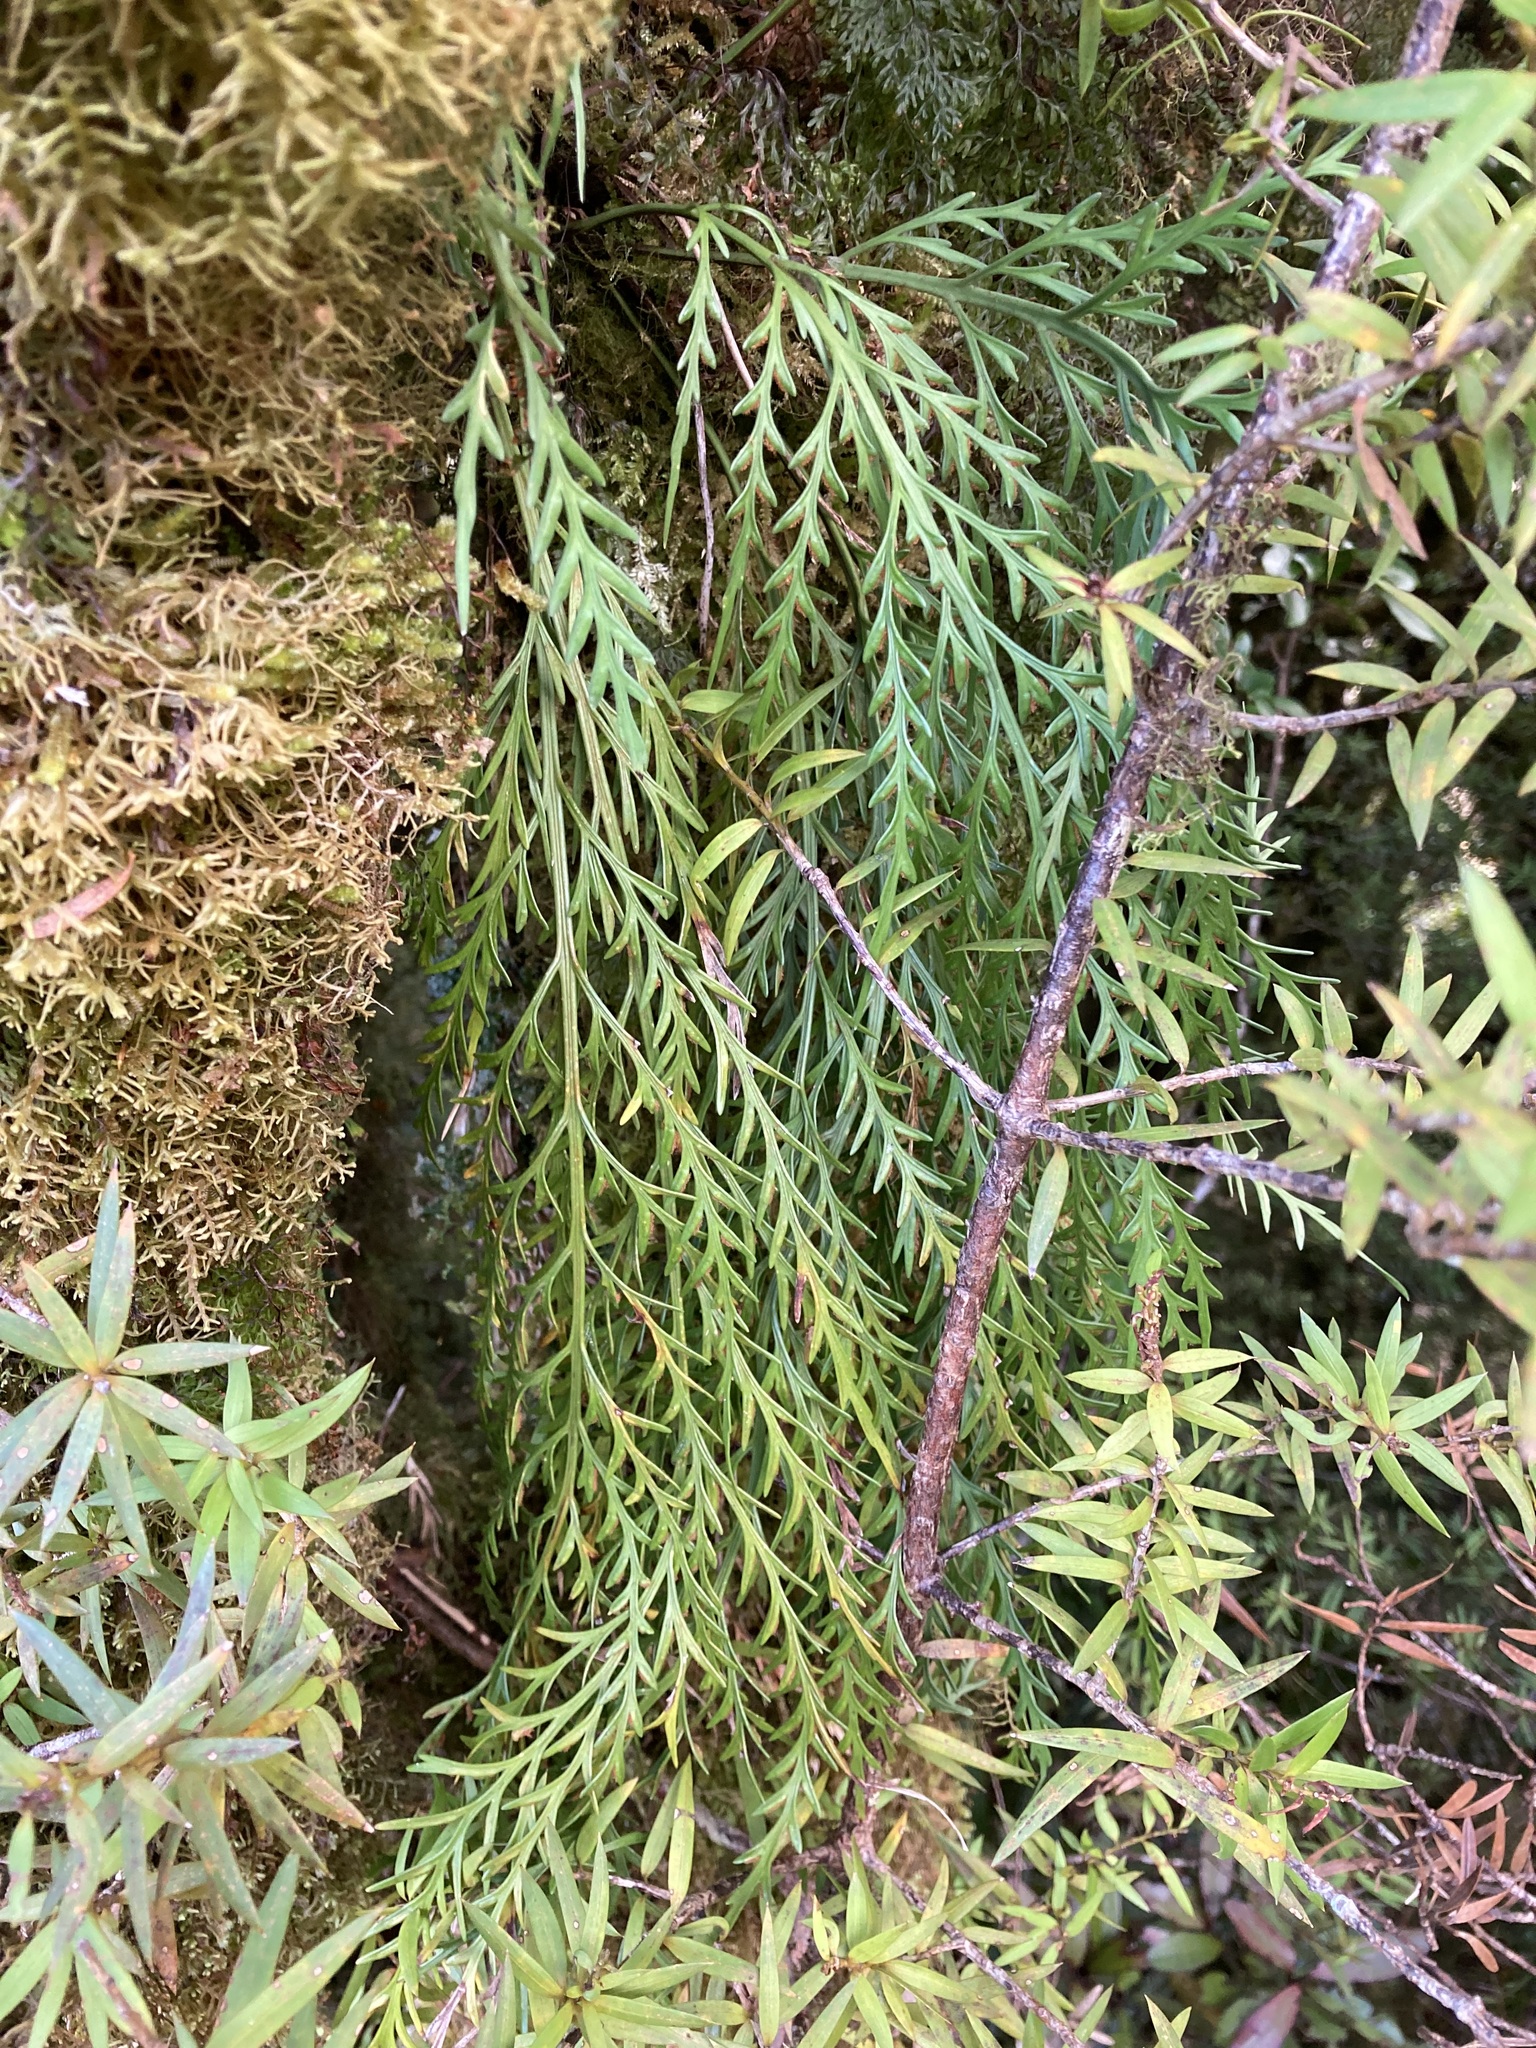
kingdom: Plantae
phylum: Tracheophyta
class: Polypodiopsida
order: Polypodiales
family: Aspleniaceae
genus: Asplenium
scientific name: Asplenium flaccidum
